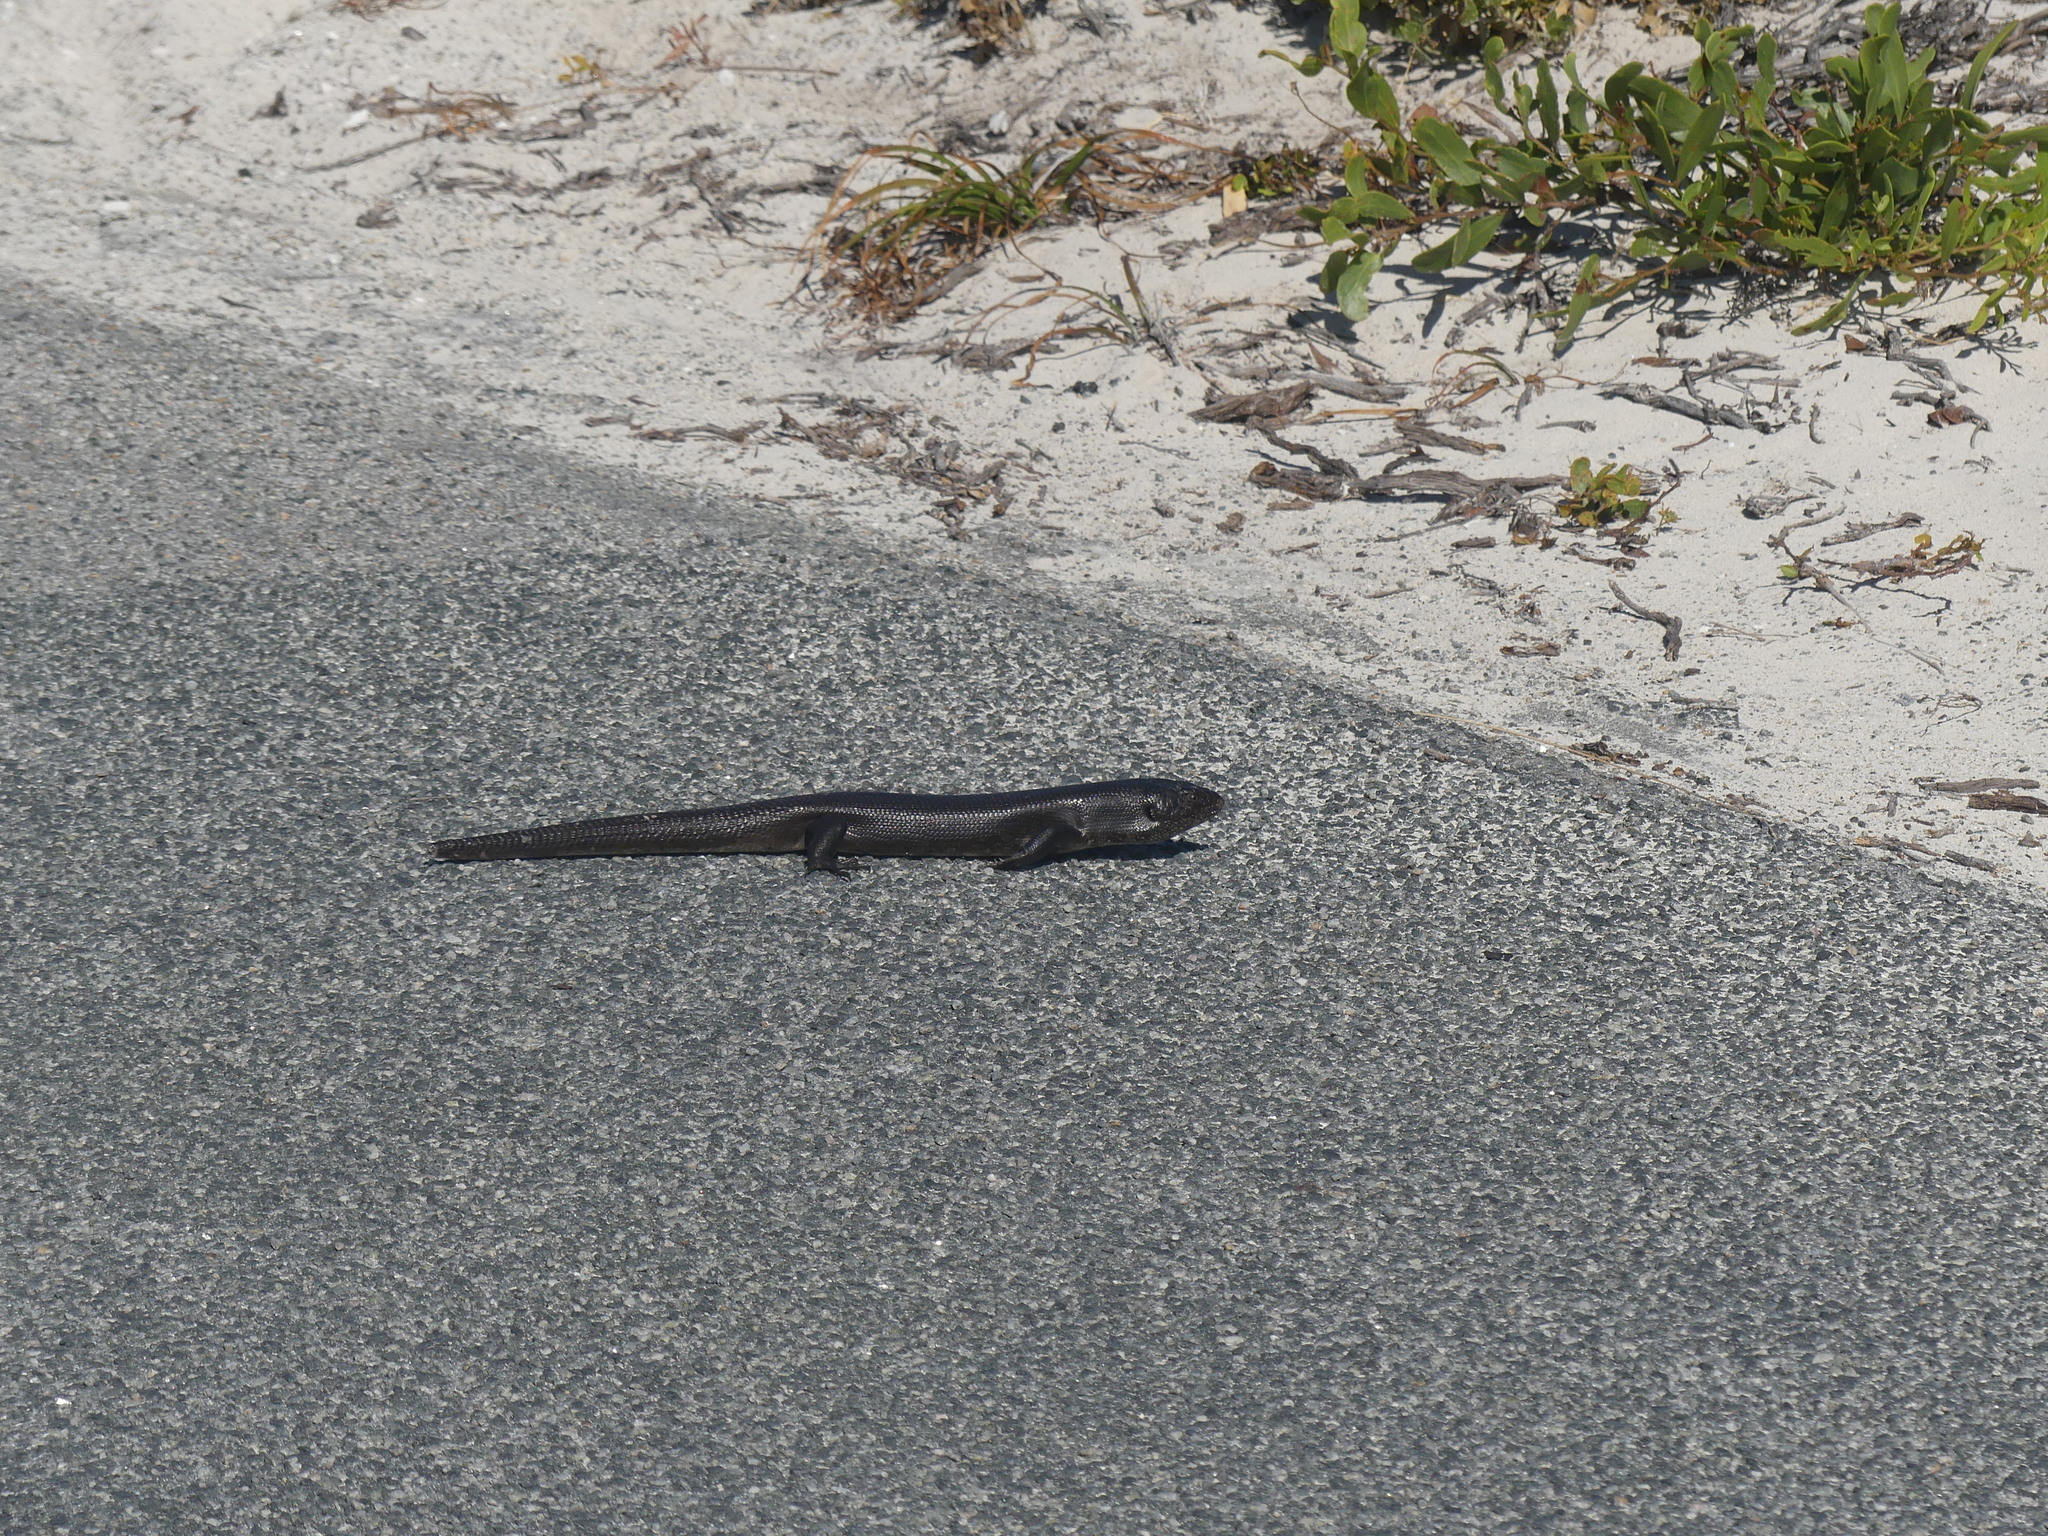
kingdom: Animalia
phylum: Chordata
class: Squamata
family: Scincidae
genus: Egernia
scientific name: Egernia kingii
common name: King's skink
